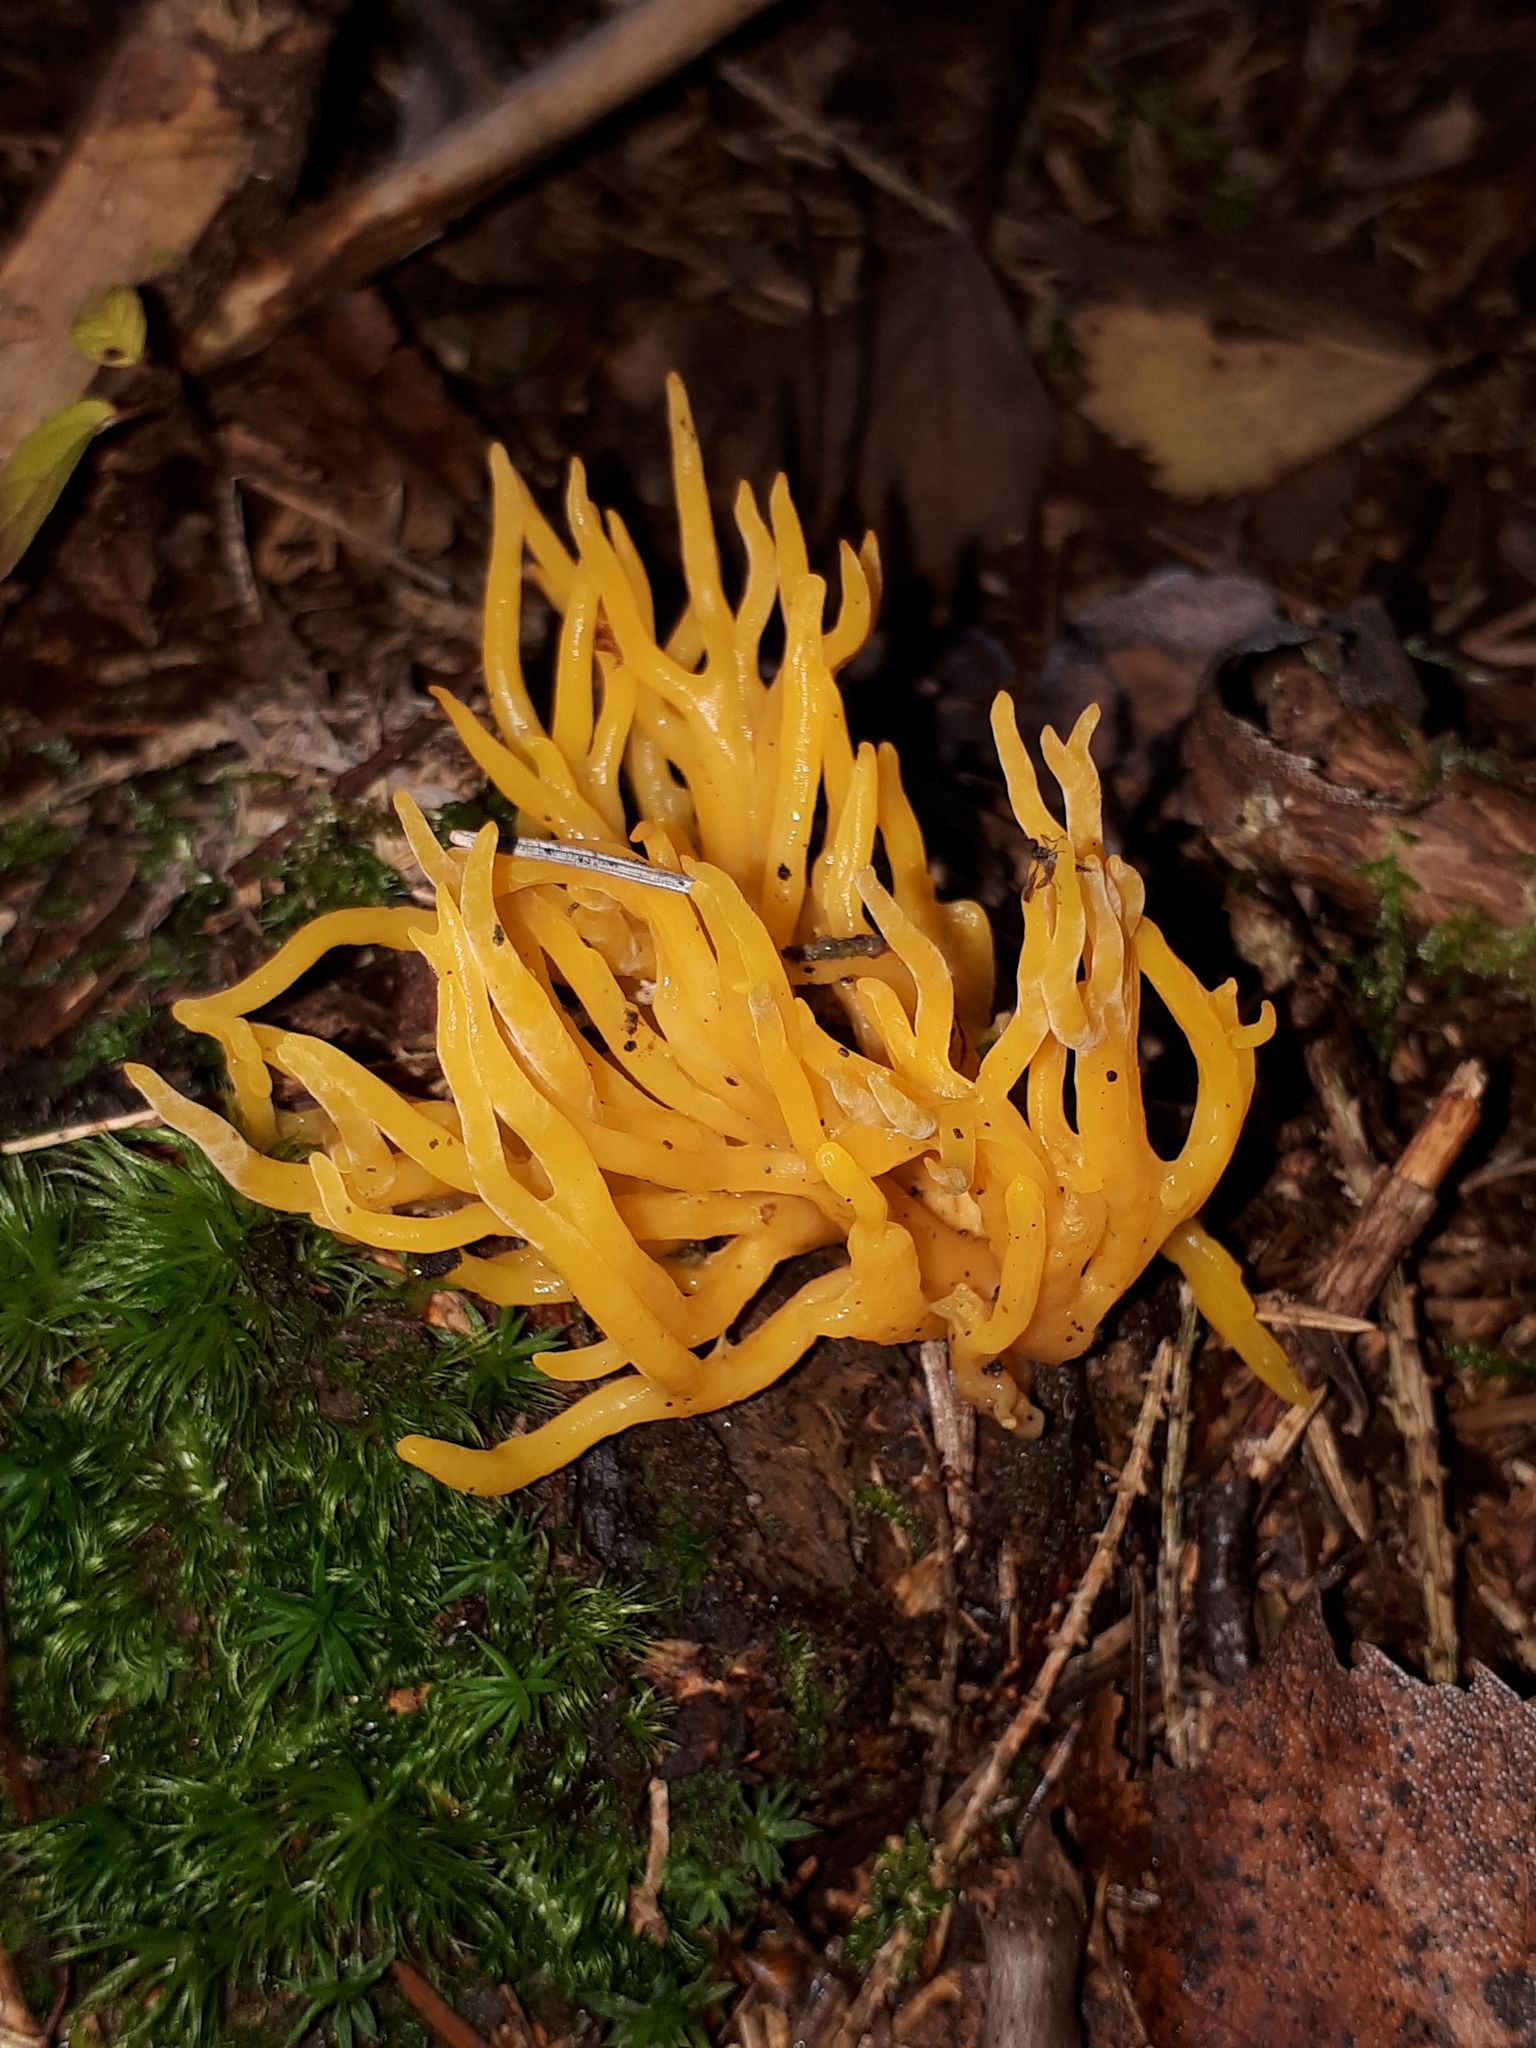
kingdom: Fungi
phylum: Basidiomycota
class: Dacrymycetes
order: Dacrymycetales
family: Dacrymycetaceae
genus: Calocera
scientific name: Calocera viscosa
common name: Yellow stagshorn
